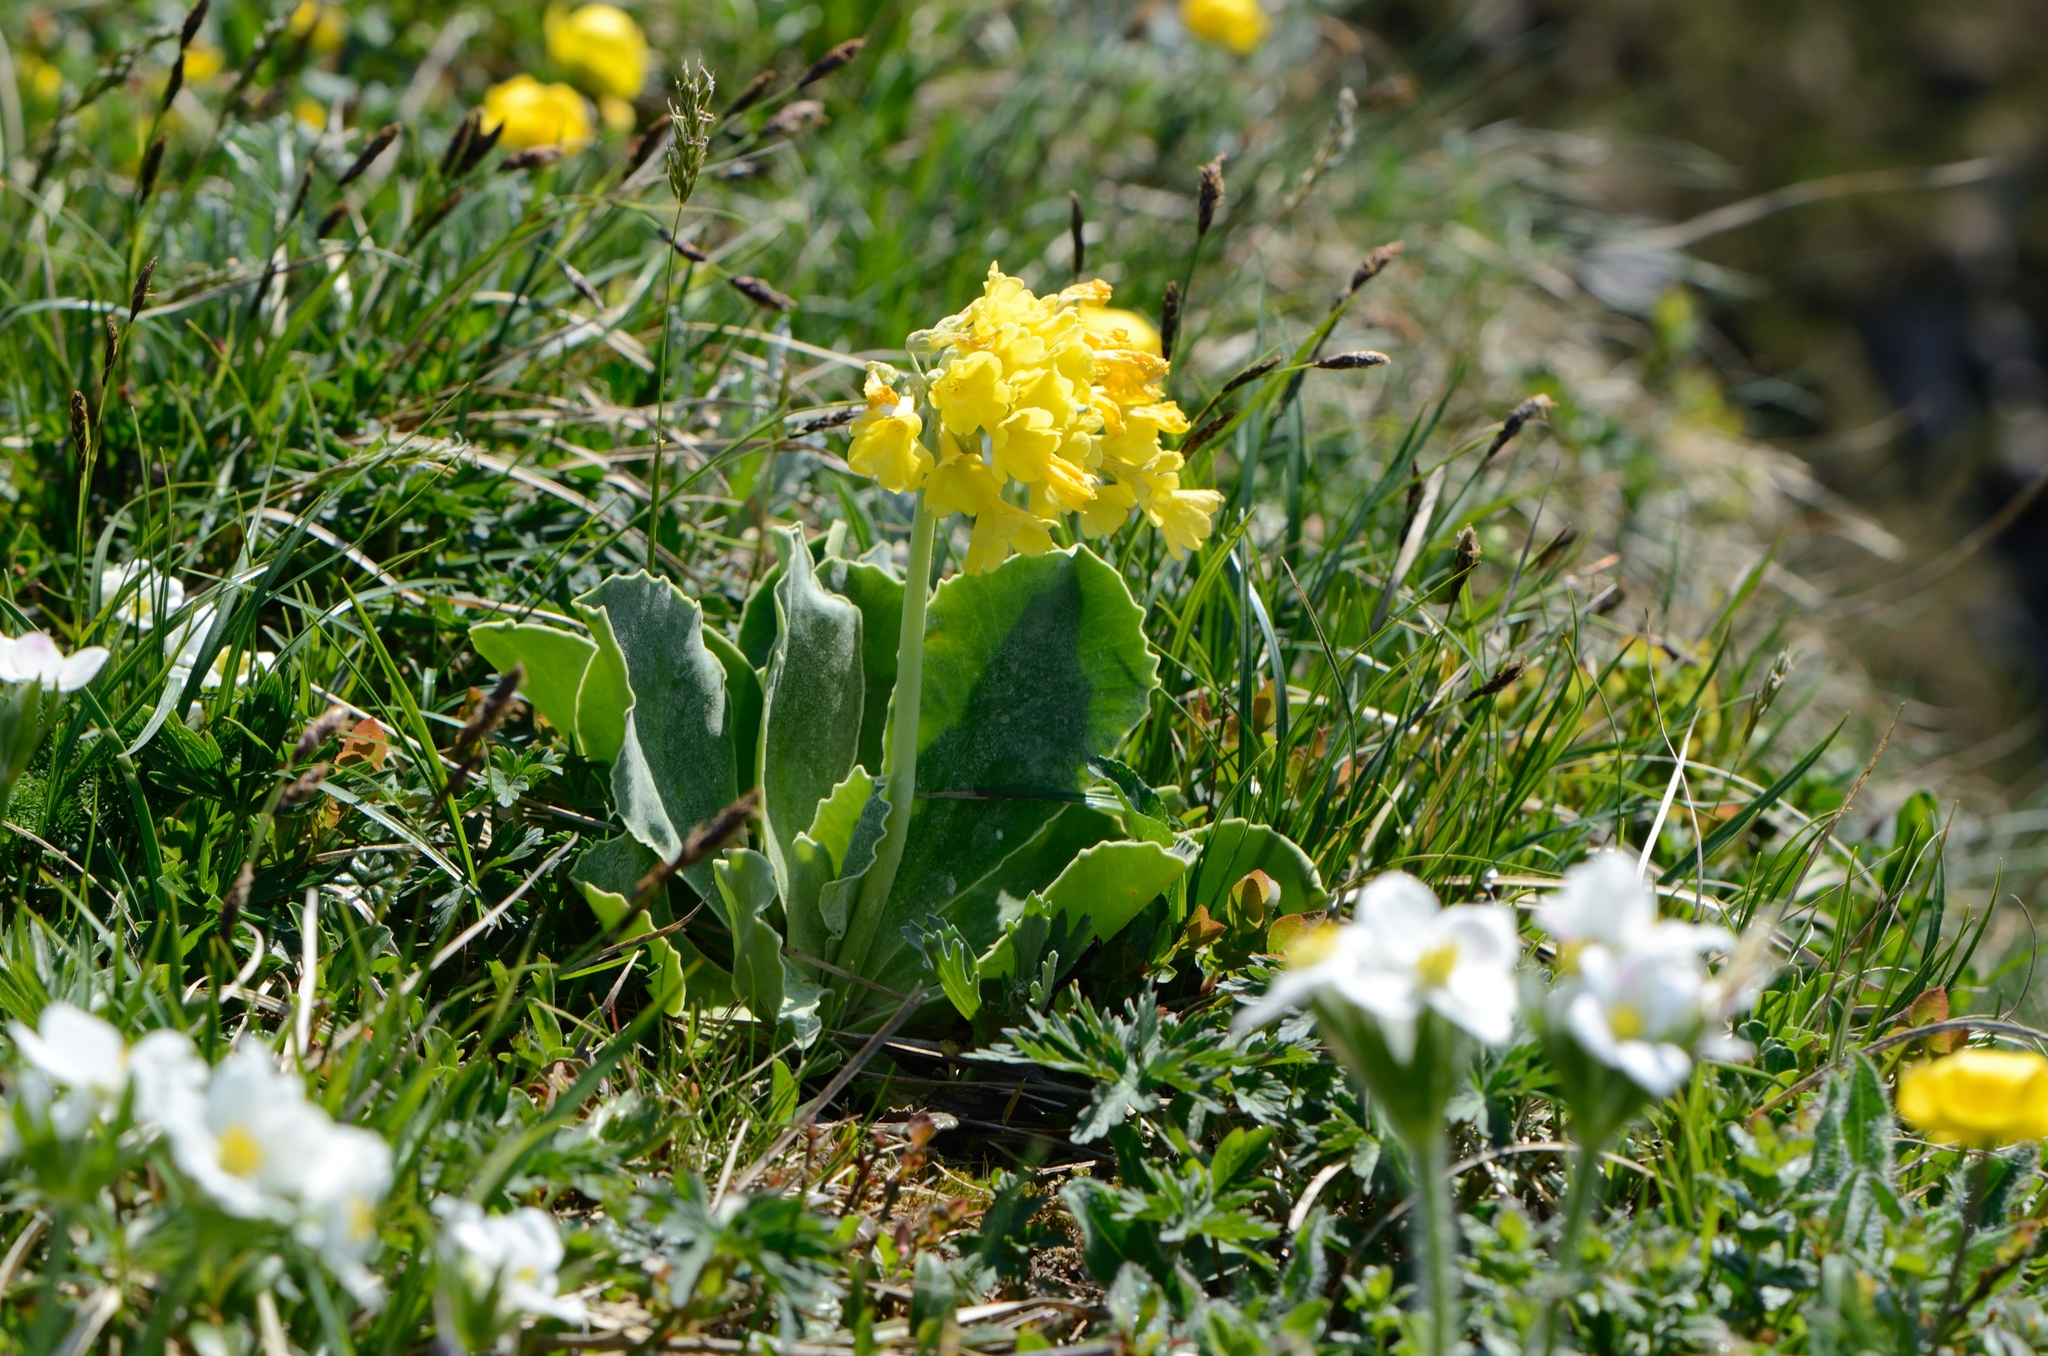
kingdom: Plantae
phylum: Tracheophyta
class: Magnoliopsida
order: Ericales
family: Primulaceae
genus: Primula
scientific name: Primula auricula
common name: Auricula
